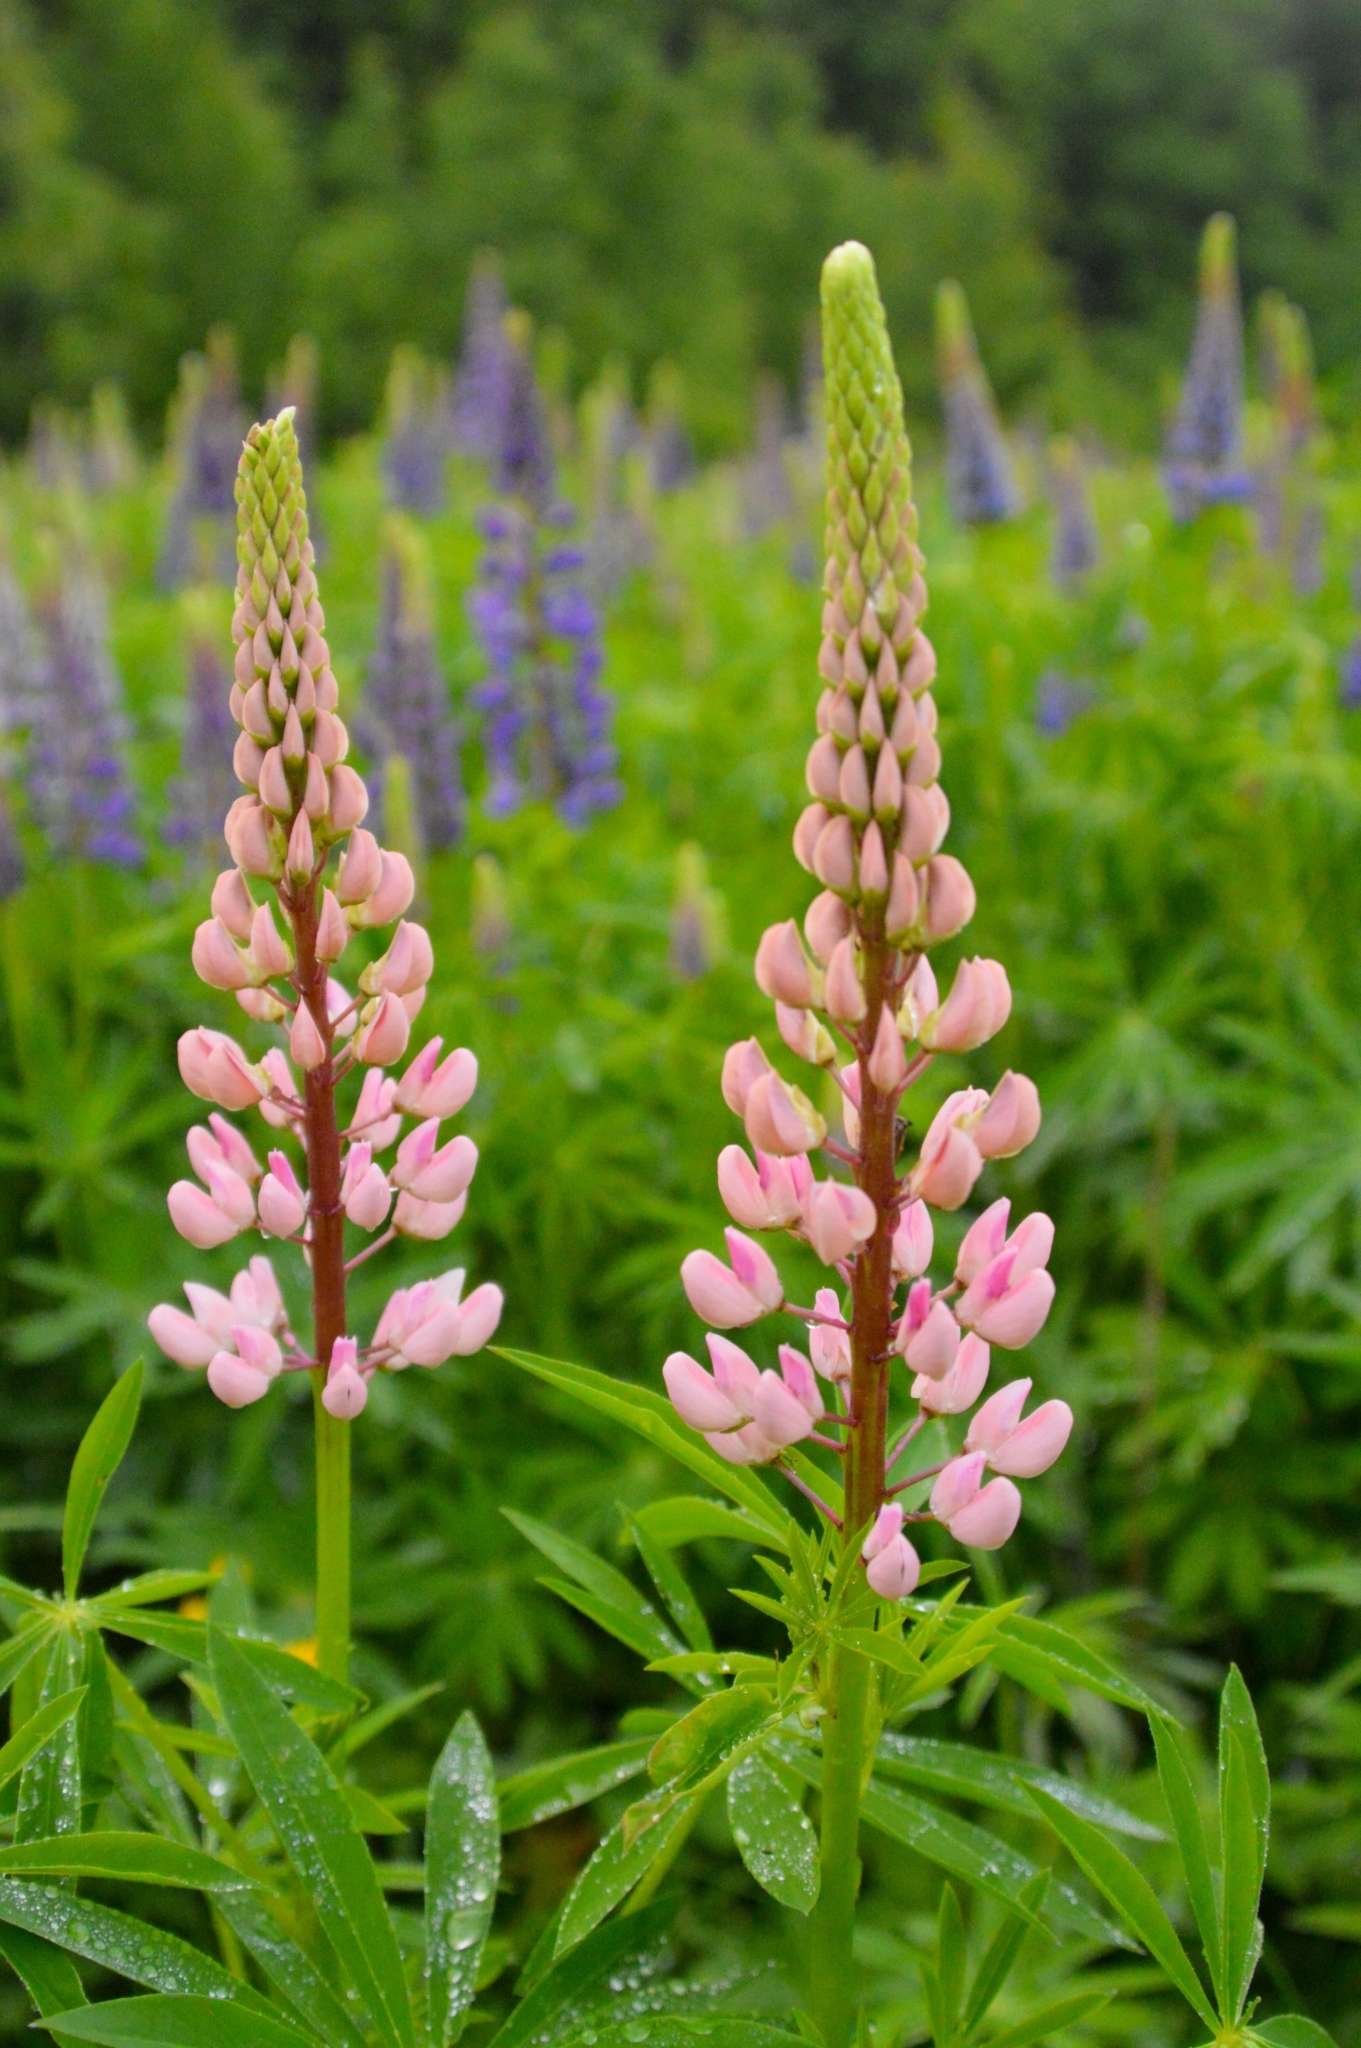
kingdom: Plantae
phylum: Tracheophyta
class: Magnoliopsida
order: Fabales
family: Fabaceae
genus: Lupinus
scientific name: Lupinus polyphyllus
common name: Garden lupin
